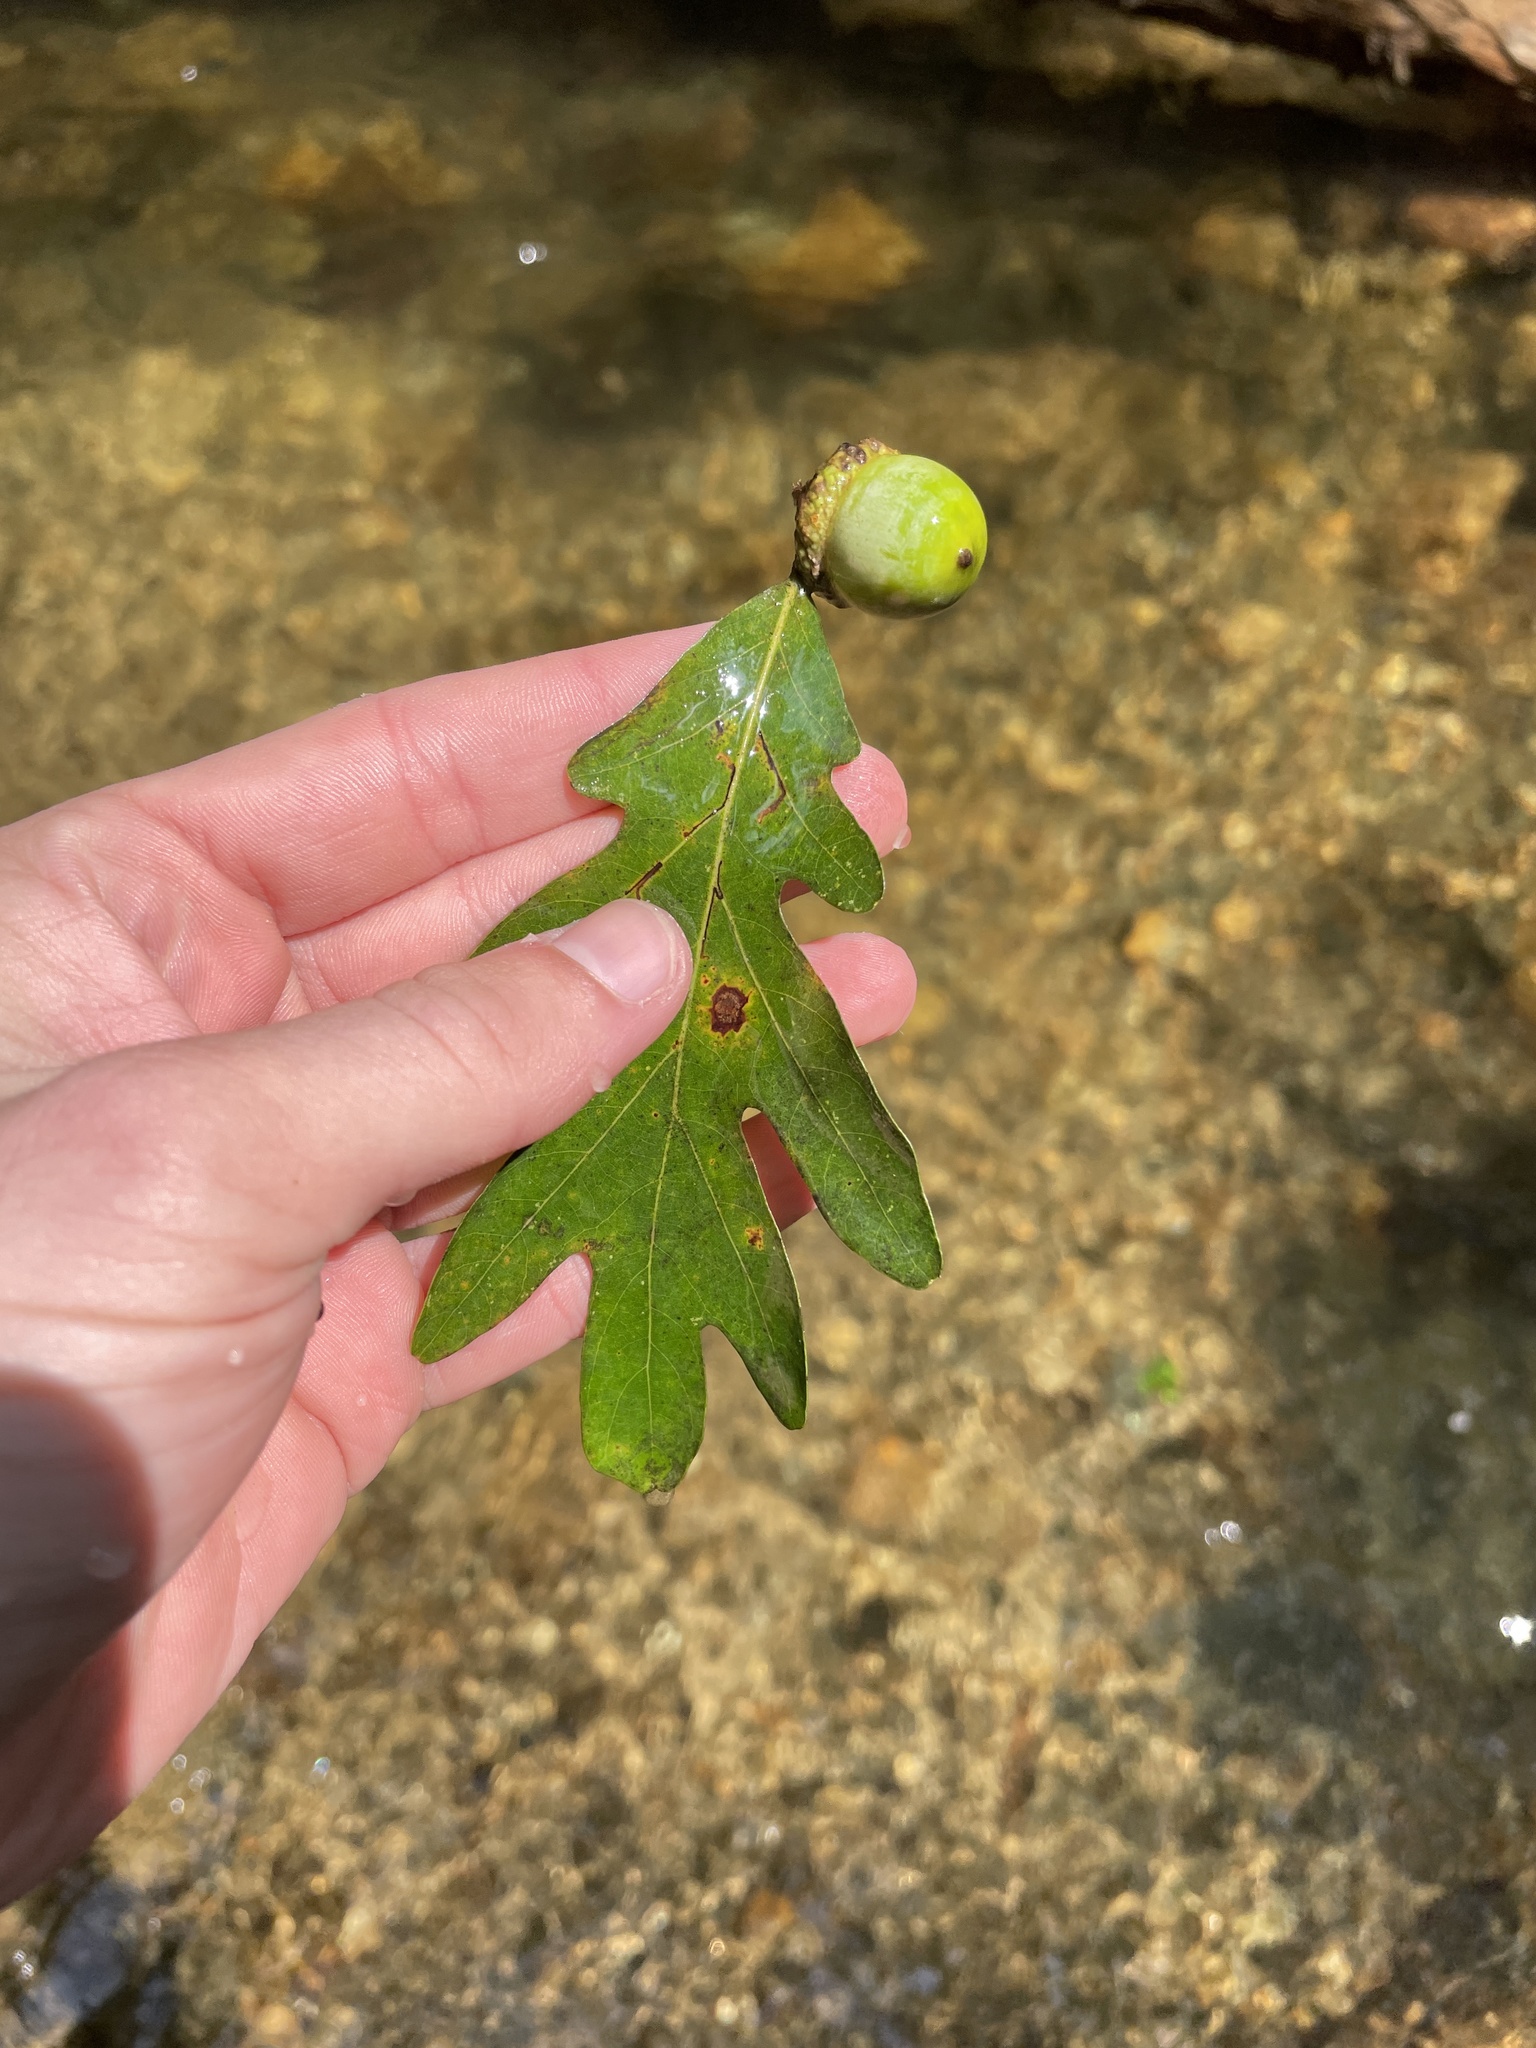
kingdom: Plantae
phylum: Tracheophyta
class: Magnoliopsida
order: Fagales
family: Fagaceae
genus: Quercus
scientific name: Quercus alba
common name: White oak
